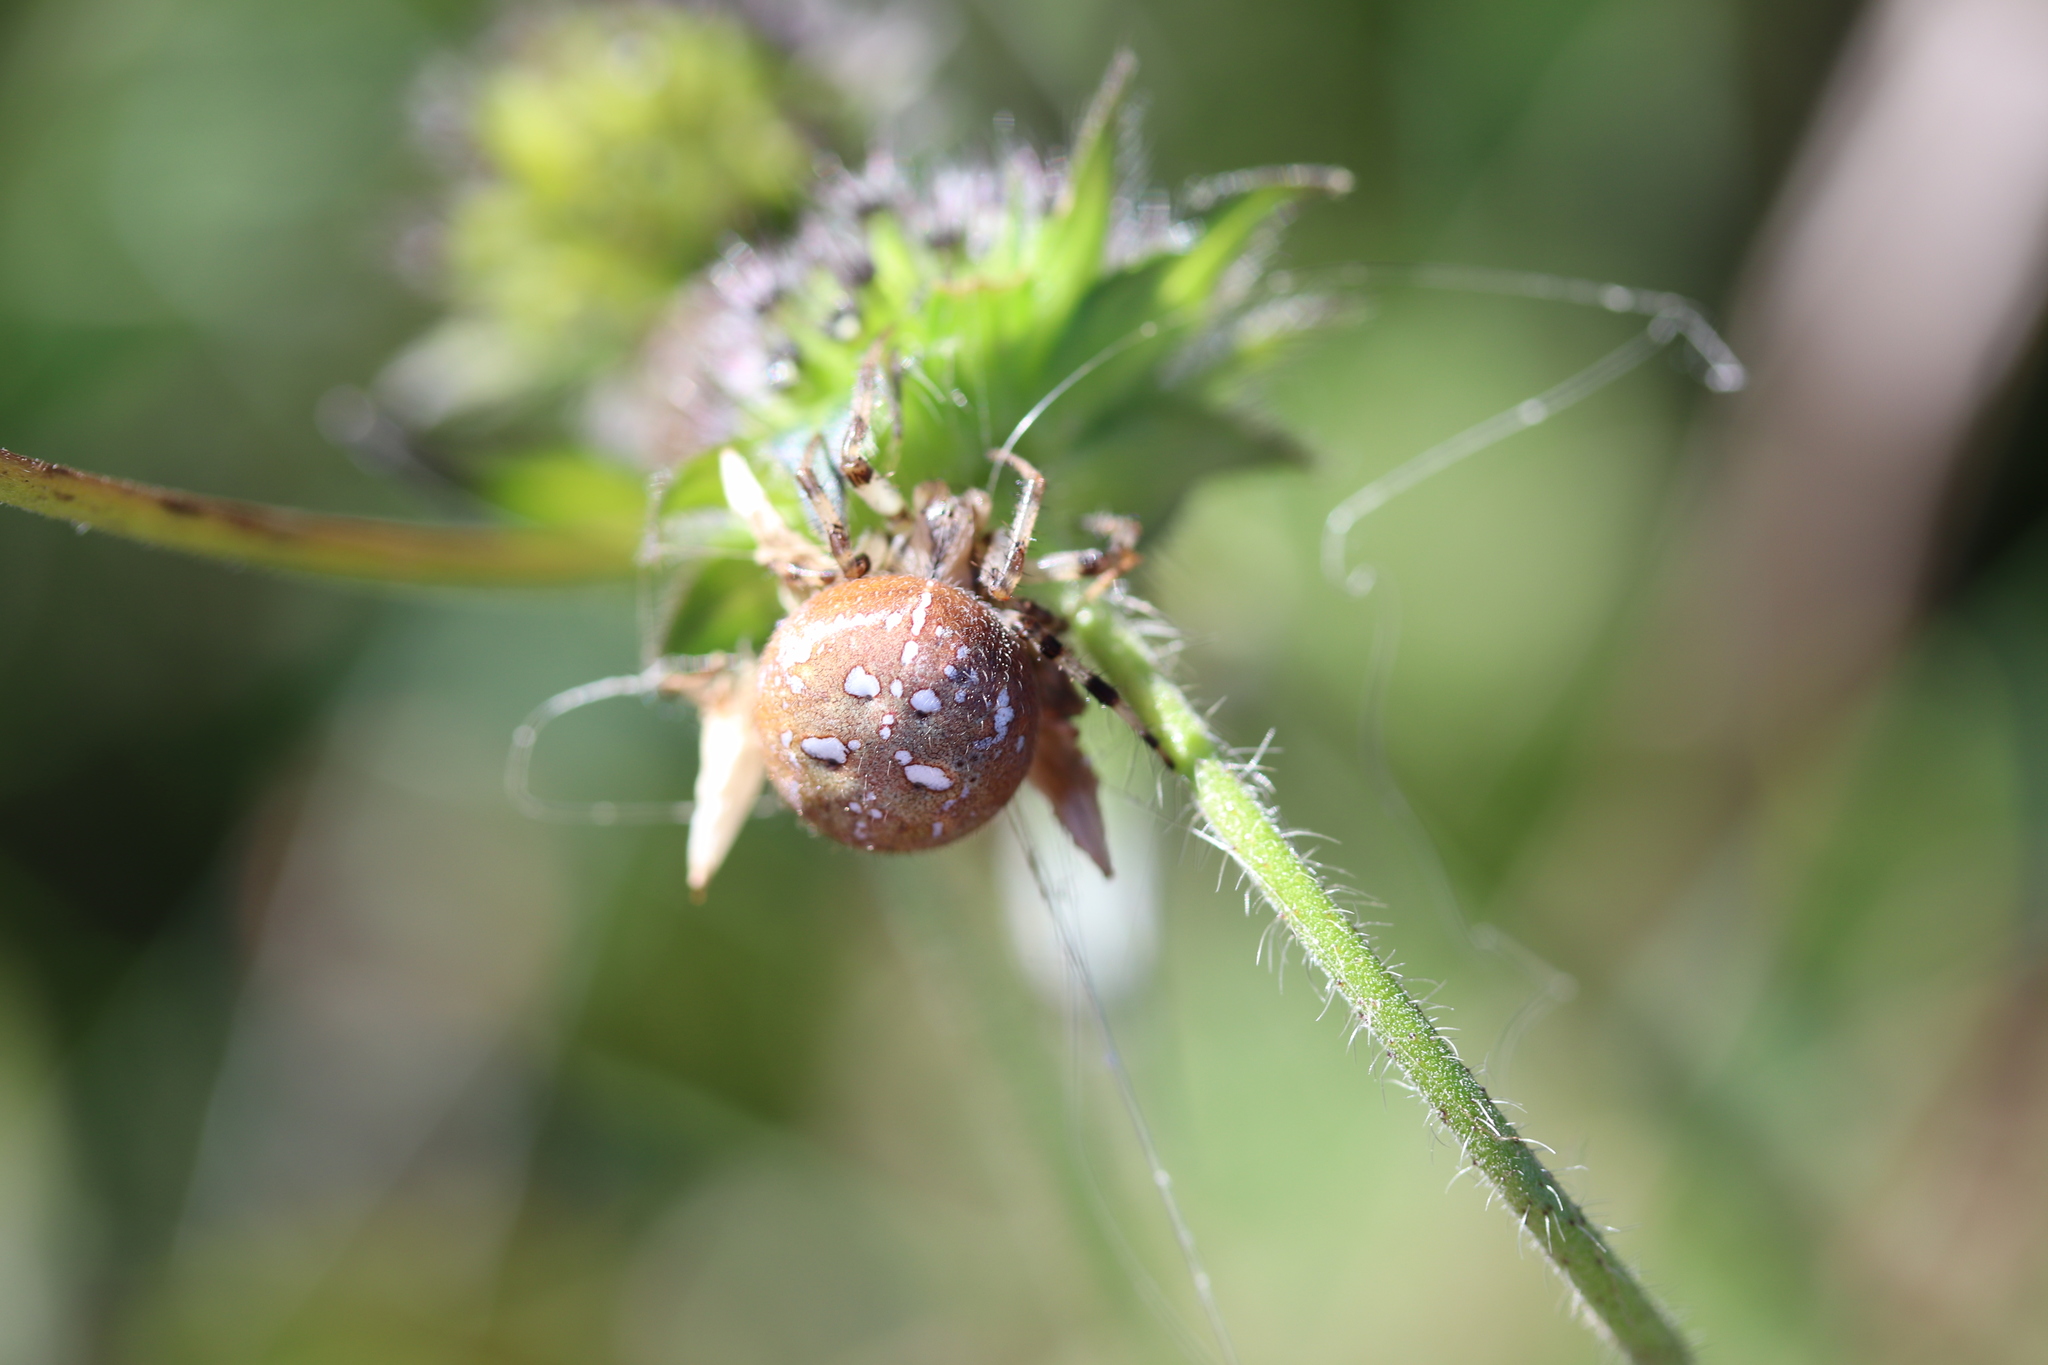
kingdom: Animalia
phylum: Arthropoda
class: Arachnida
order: Araneae
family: Araneidae
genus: Araneus
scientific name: Araneus quadratus
